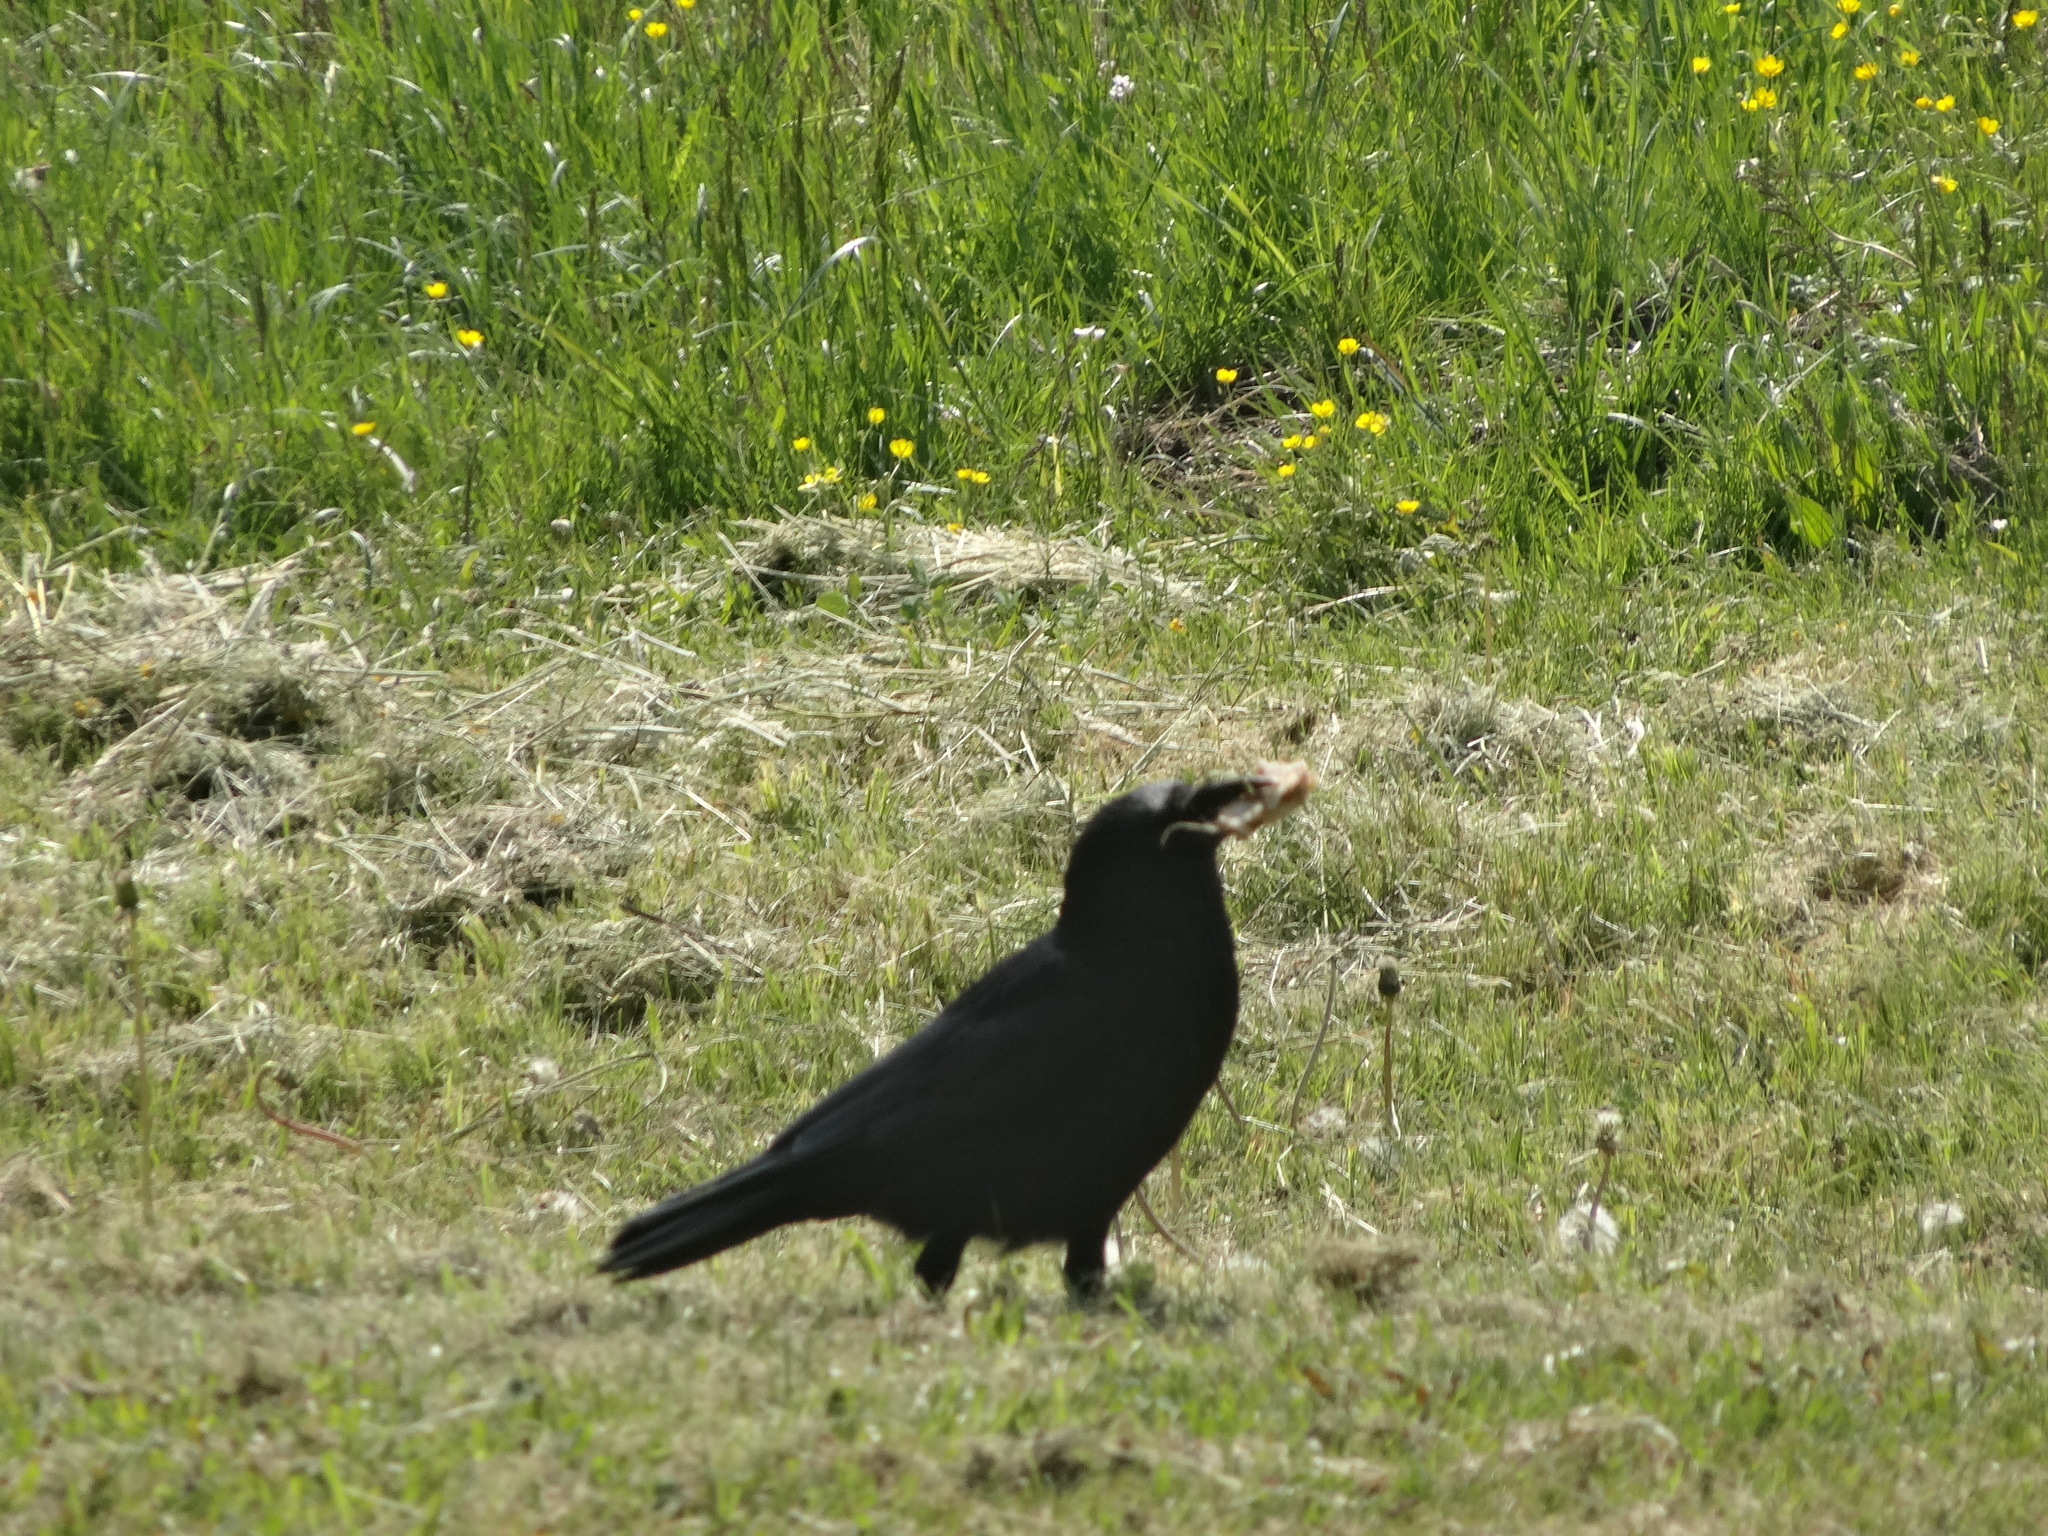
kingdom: Animalia
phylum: Chordata
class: Aves
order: Passeriformes
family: Corvidae
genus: Corvus
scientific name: Corvus frugilegus
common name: Rook
